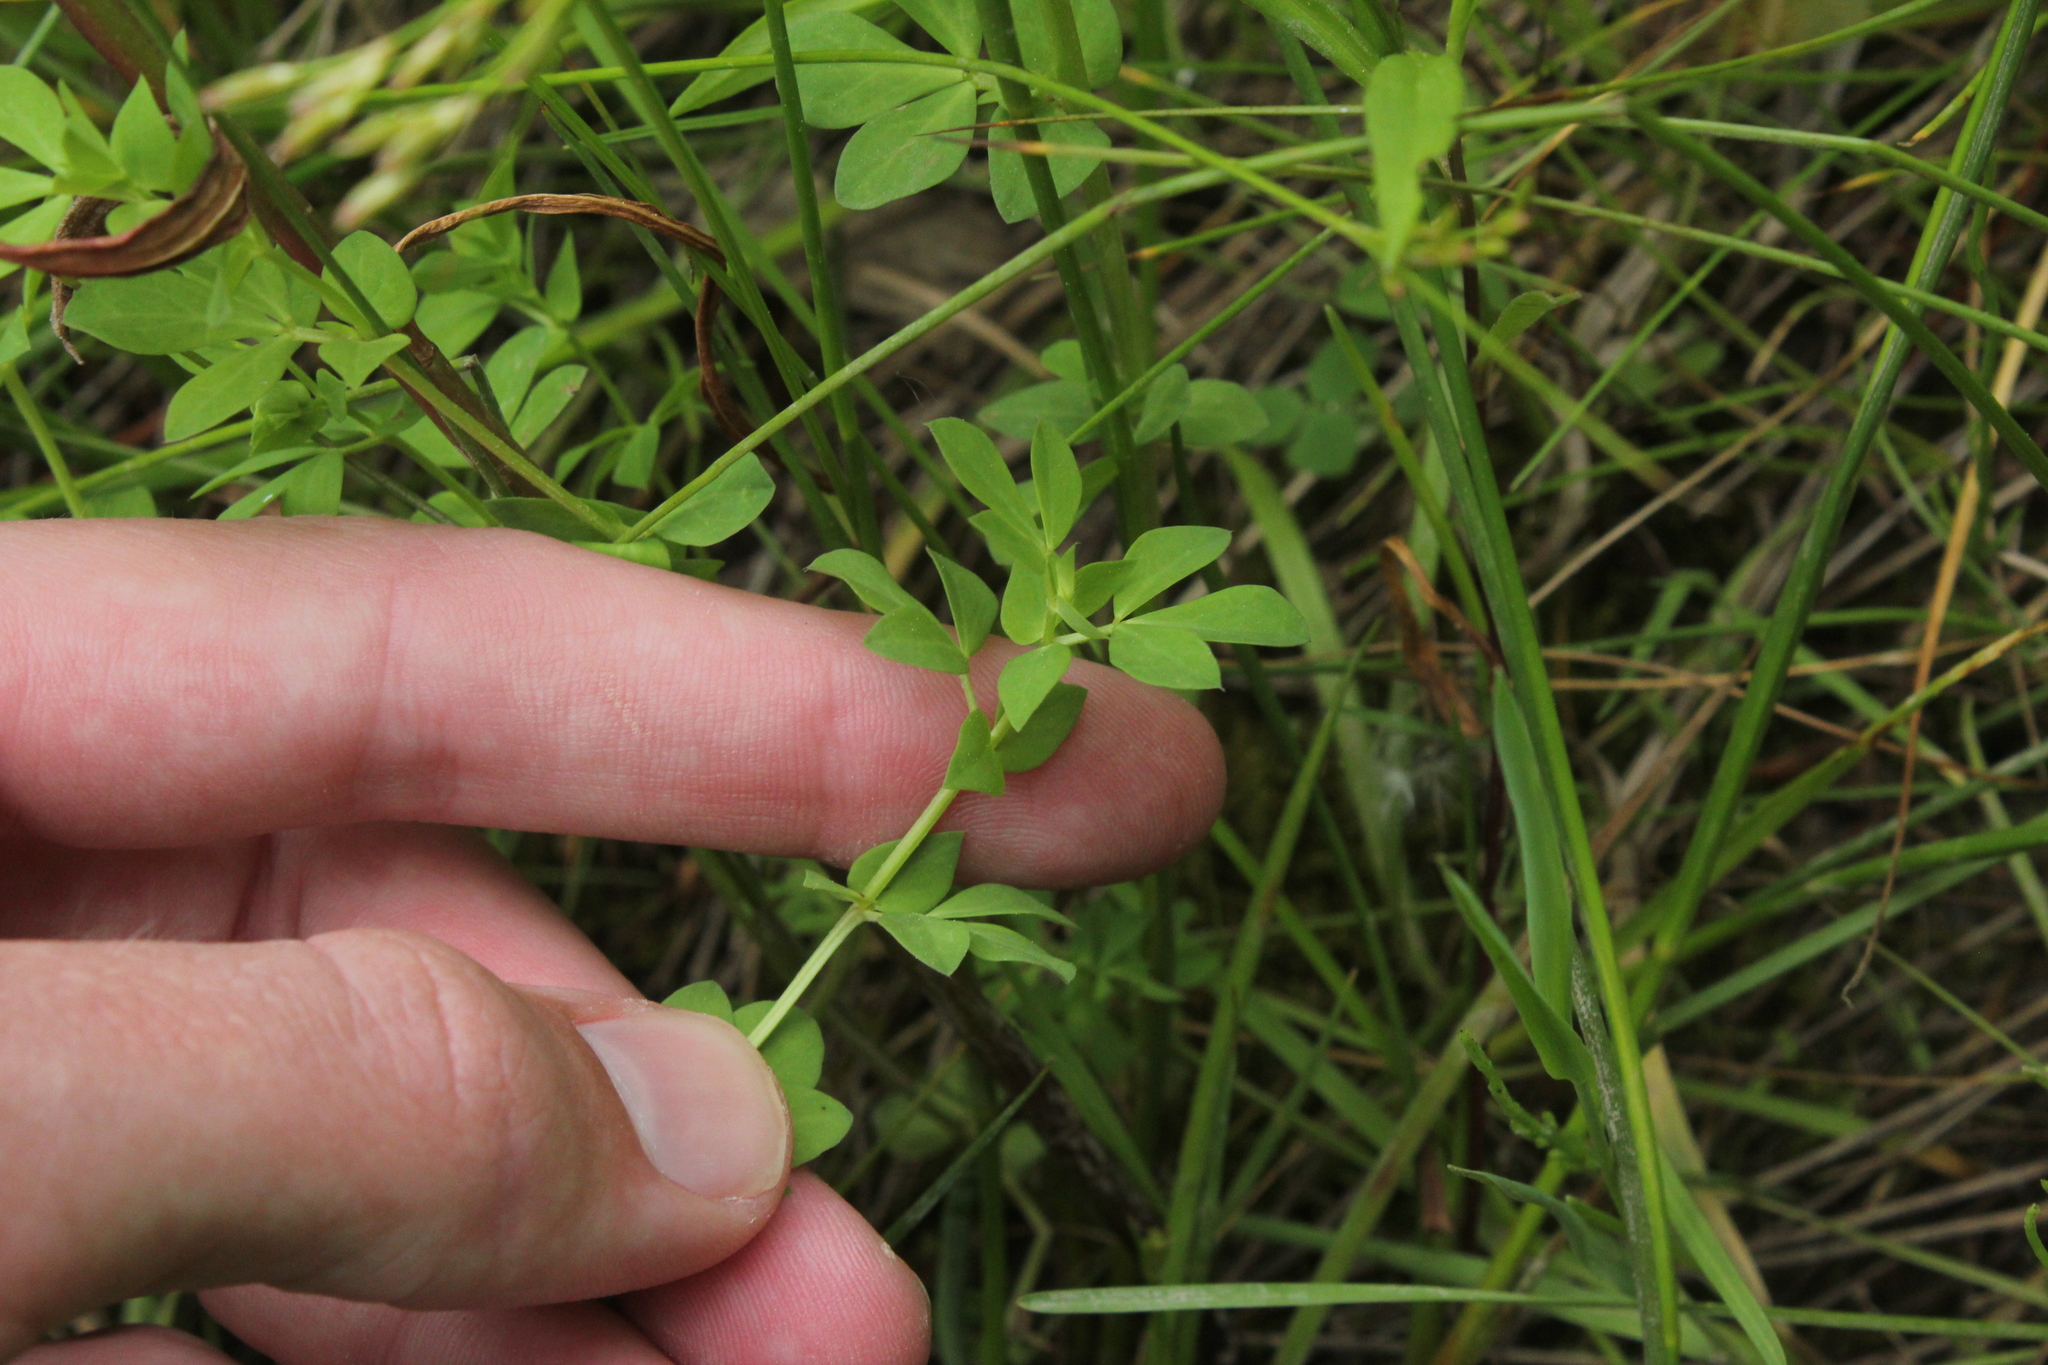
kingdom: Plantae
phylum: Tracheophyta
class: Magnoliopsida
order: Fabales
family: Fabaceae
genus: Lotus
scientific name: Lotus corniculatus
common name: Common bird's-foot-trefoil
